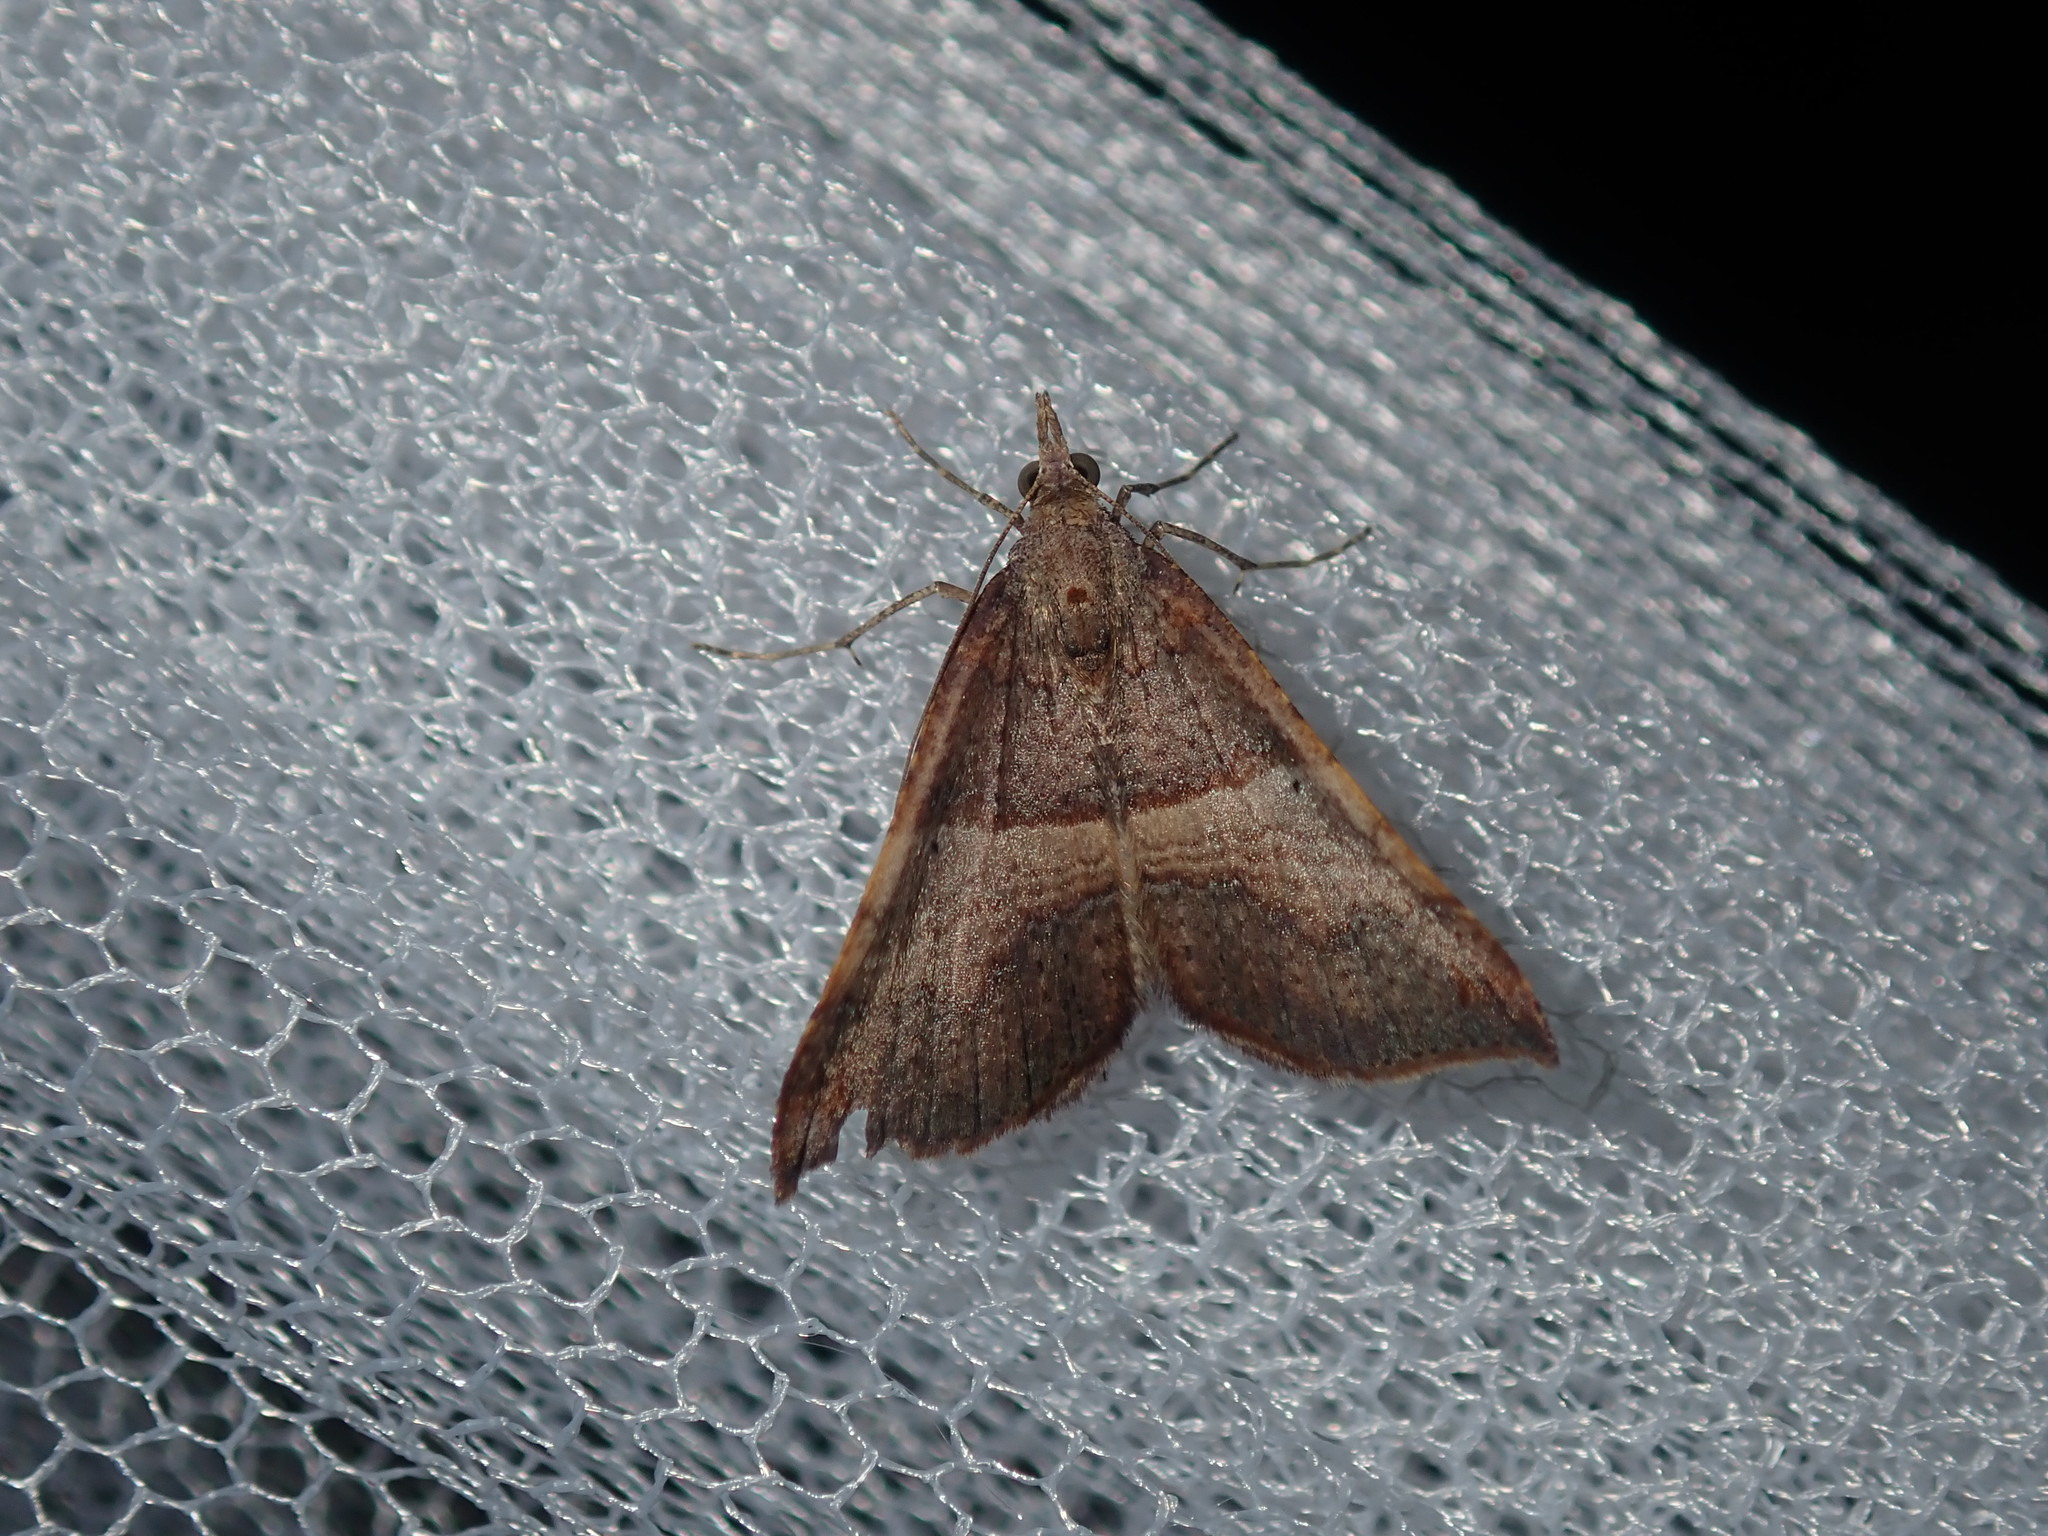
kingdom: Animalia
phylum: Arthropoda
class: Insecta
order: Lepidoptera
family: Geometridae
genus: Anachloris
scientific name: Anachloris uncinata
